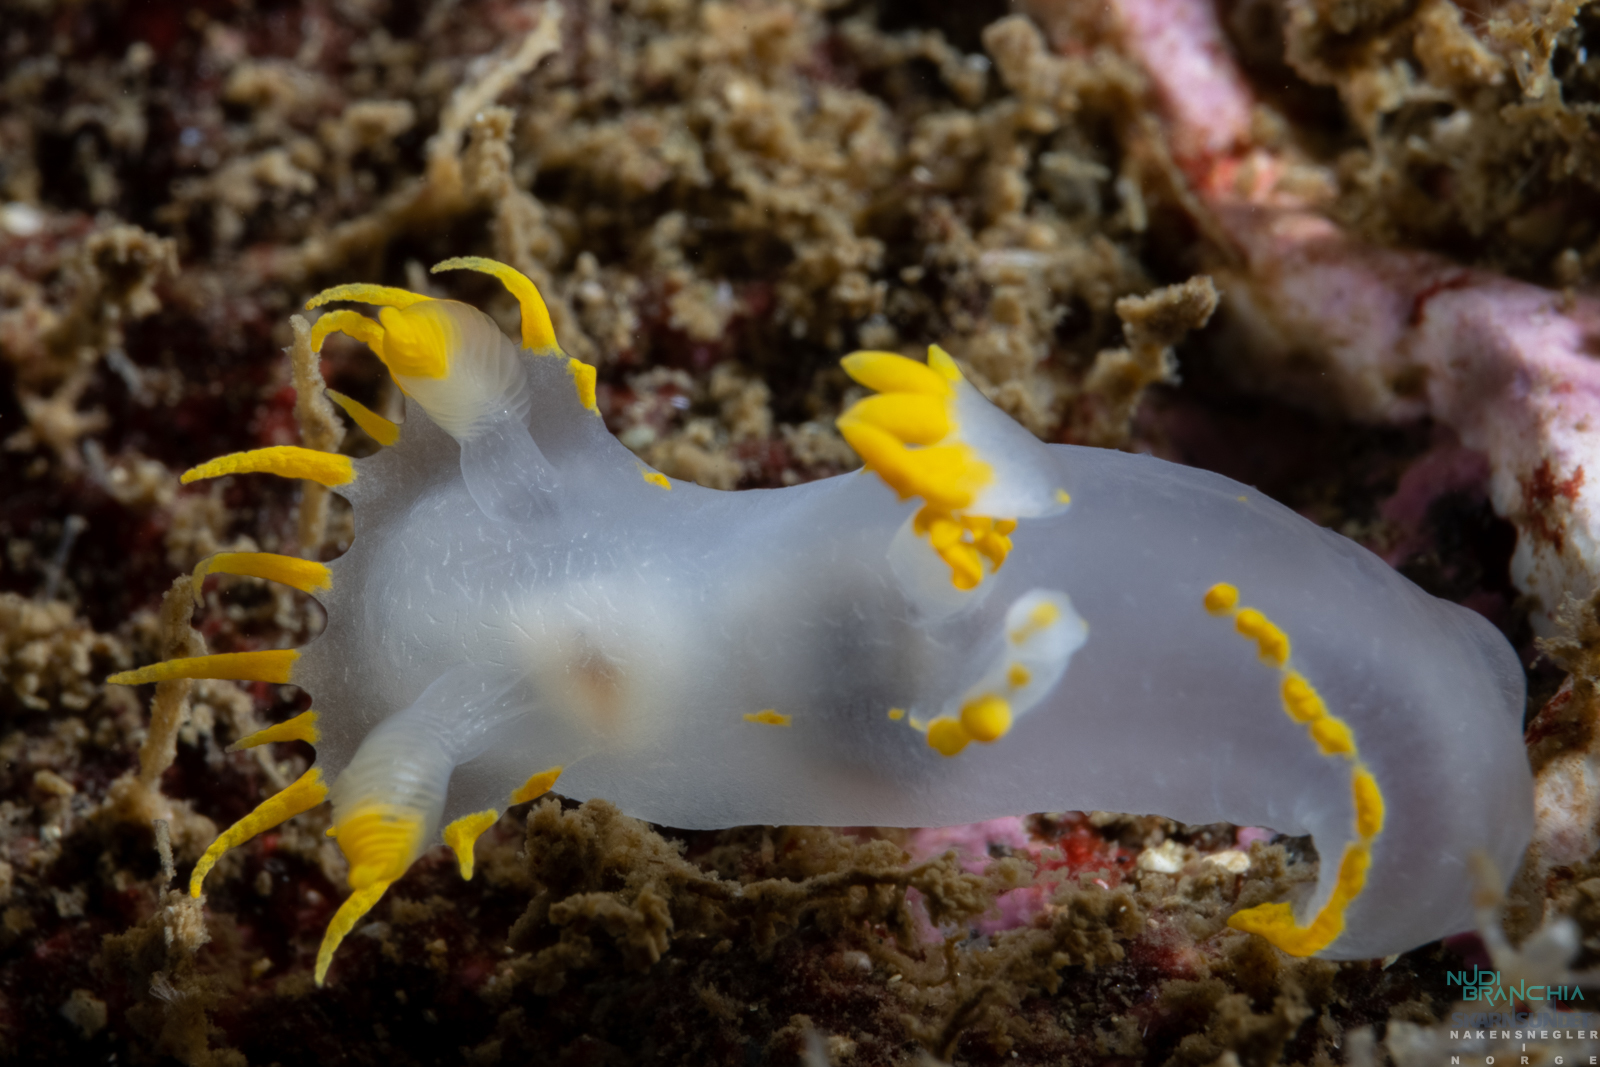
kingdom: Animalia
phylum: Mollusca
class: Gastropoda
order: Nudibranchia
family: Polyceridae
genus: Polycera
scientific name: Polycera faeroensis
